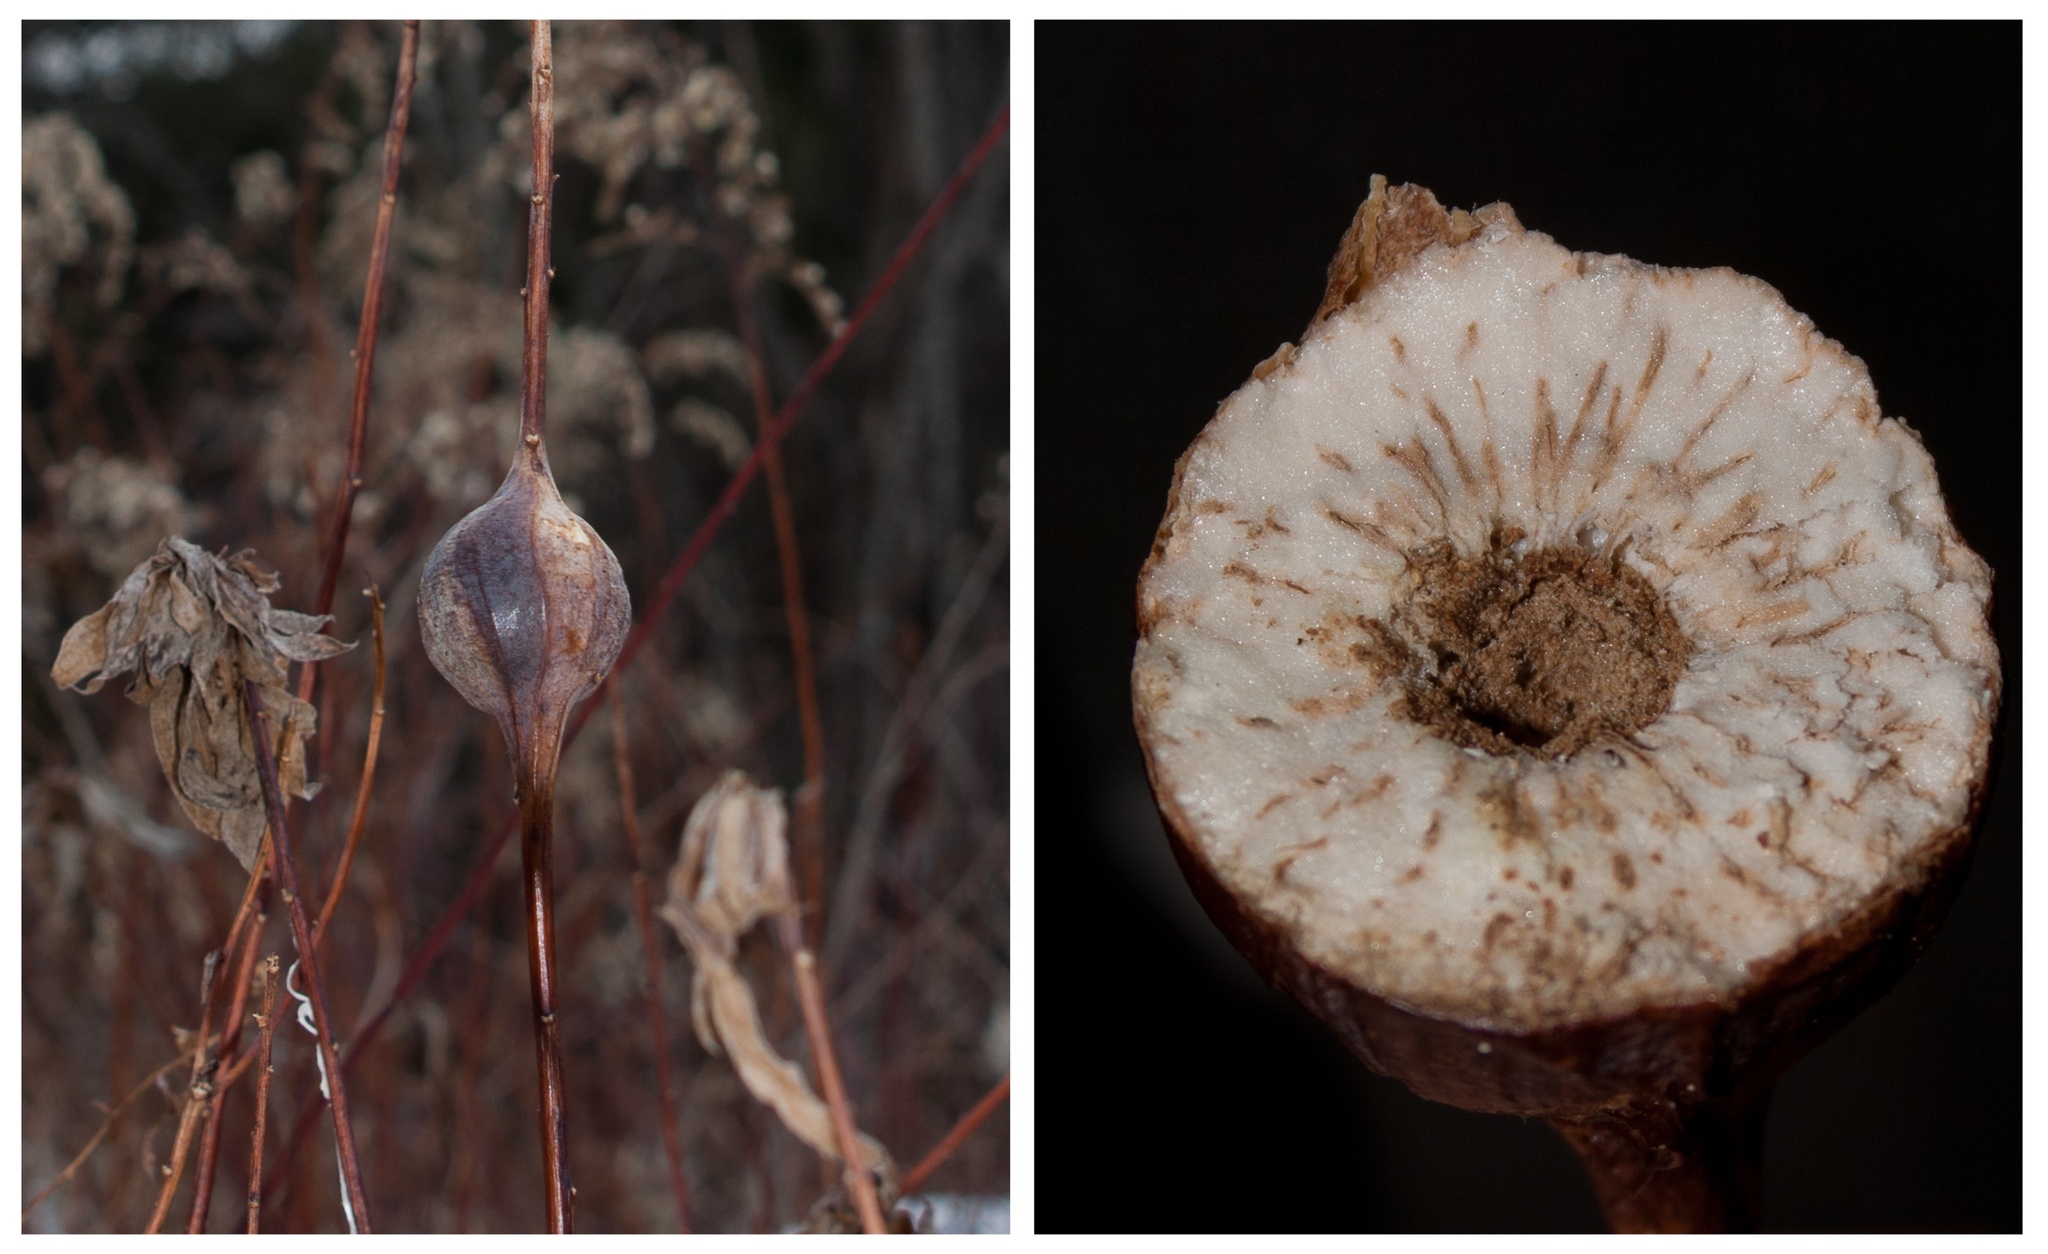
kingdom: Animalia
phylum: Arthropoda
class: Insecta
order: Diptera
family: Tephritidae
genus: Eurosta
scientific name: Eurosta solidaginis
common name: Goldenrod gall fly
